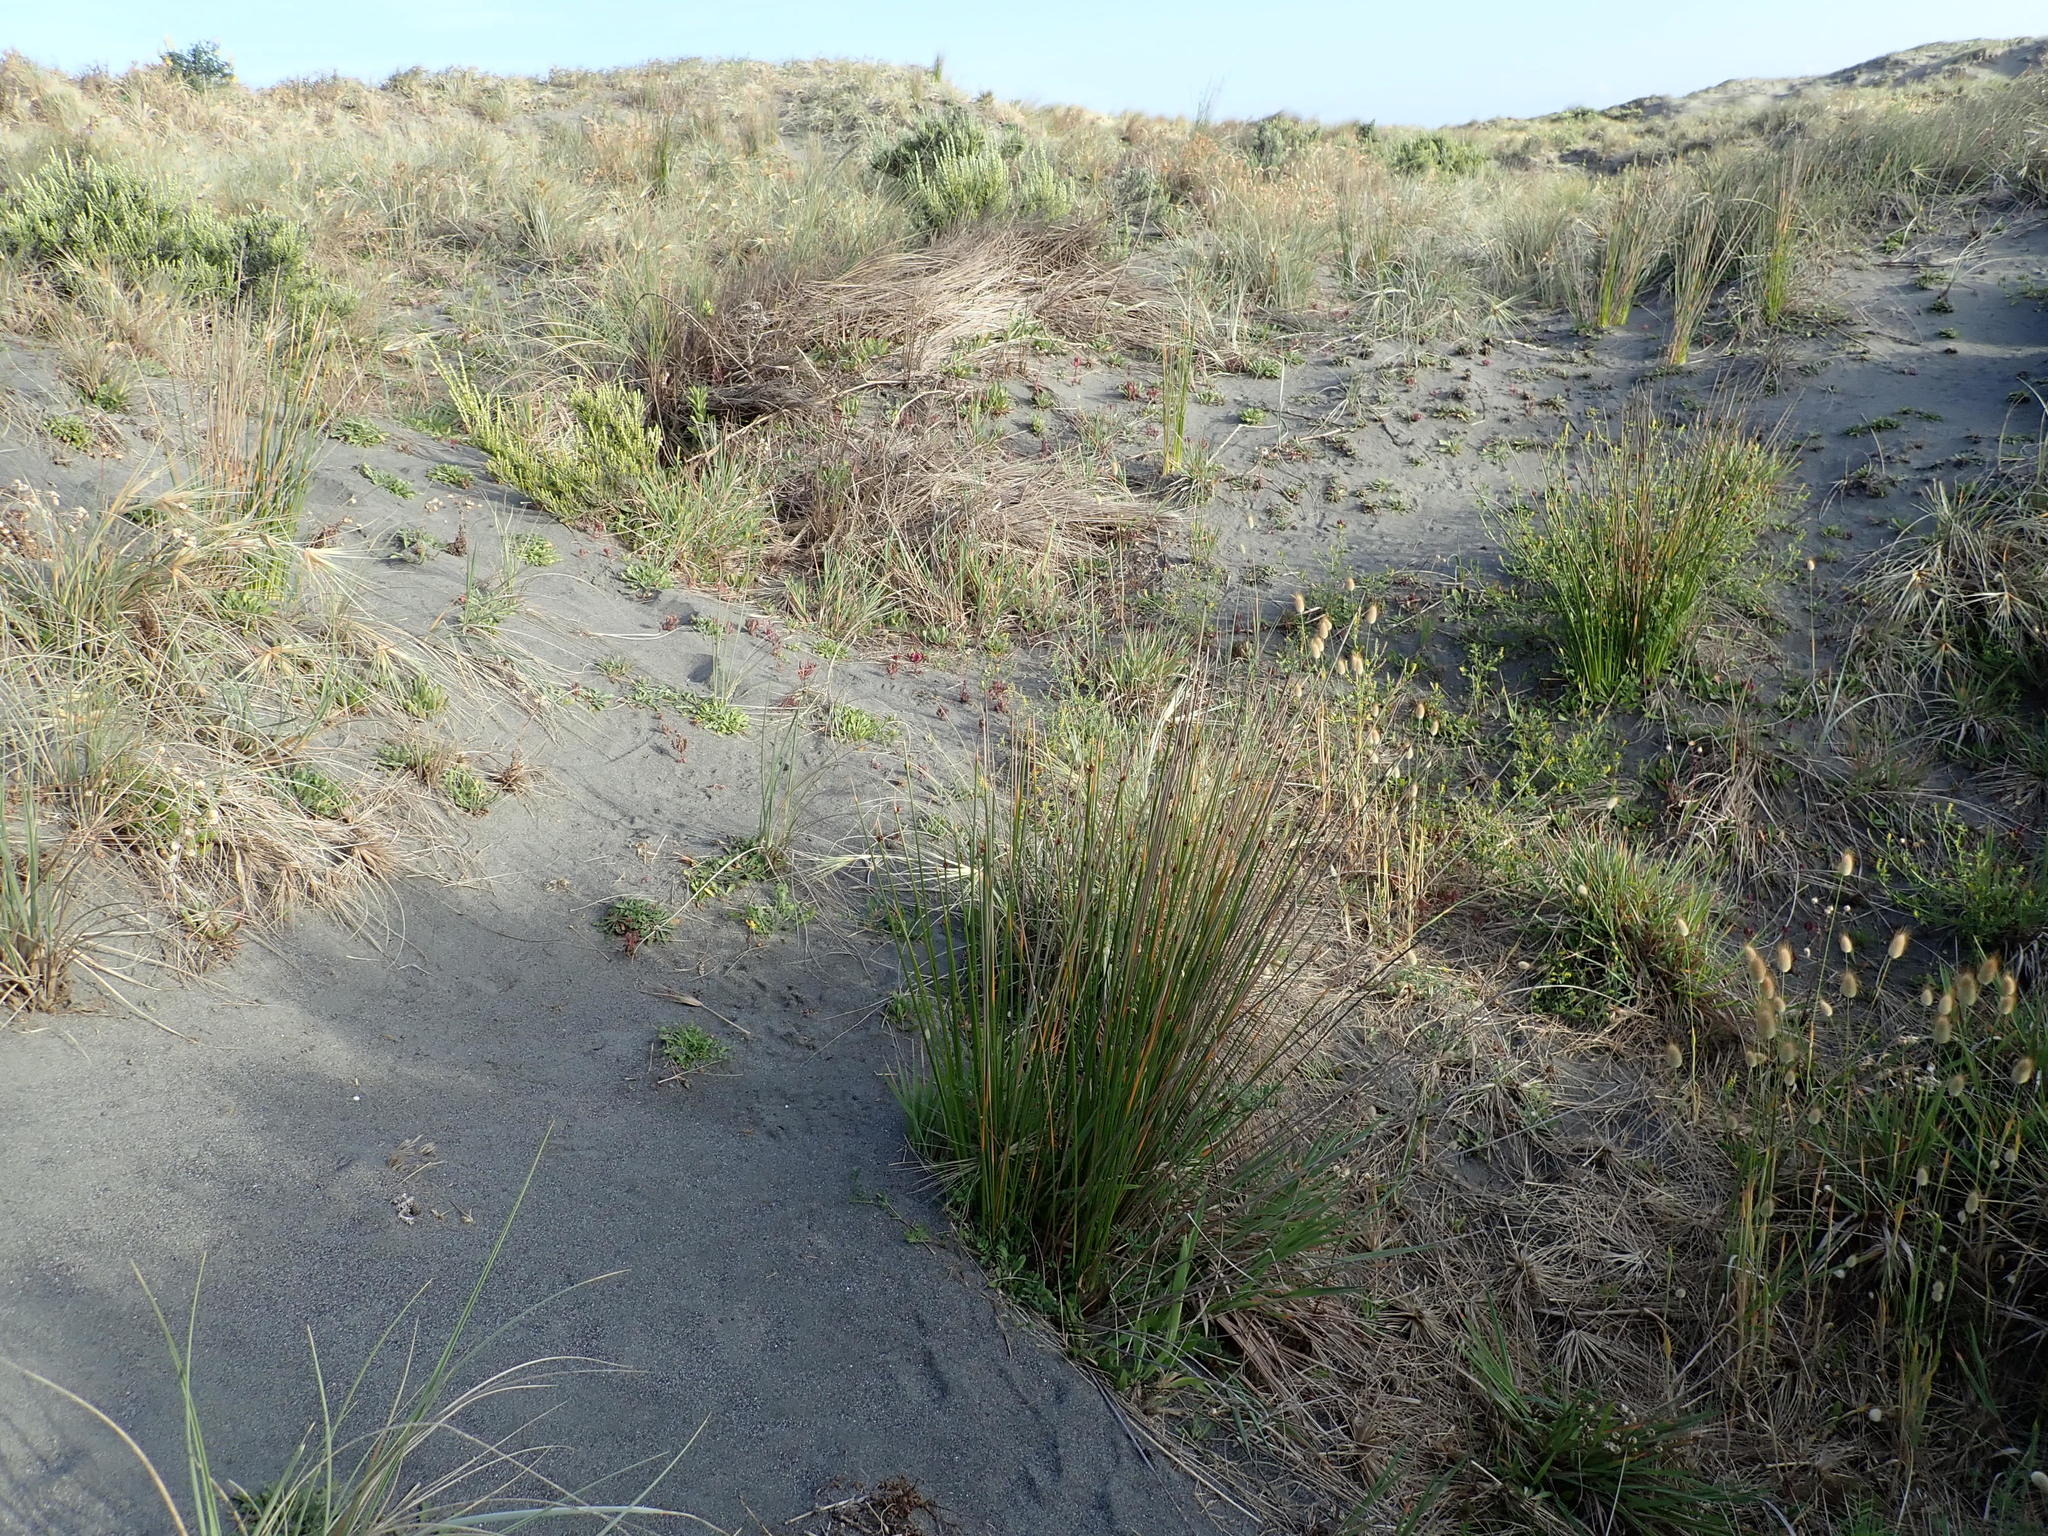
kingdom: Plantae
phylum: Tracheophyta
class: Liliopsida
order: Poales
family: Cyperaceae
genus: Ficinia
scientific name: Ficinia nodosa
